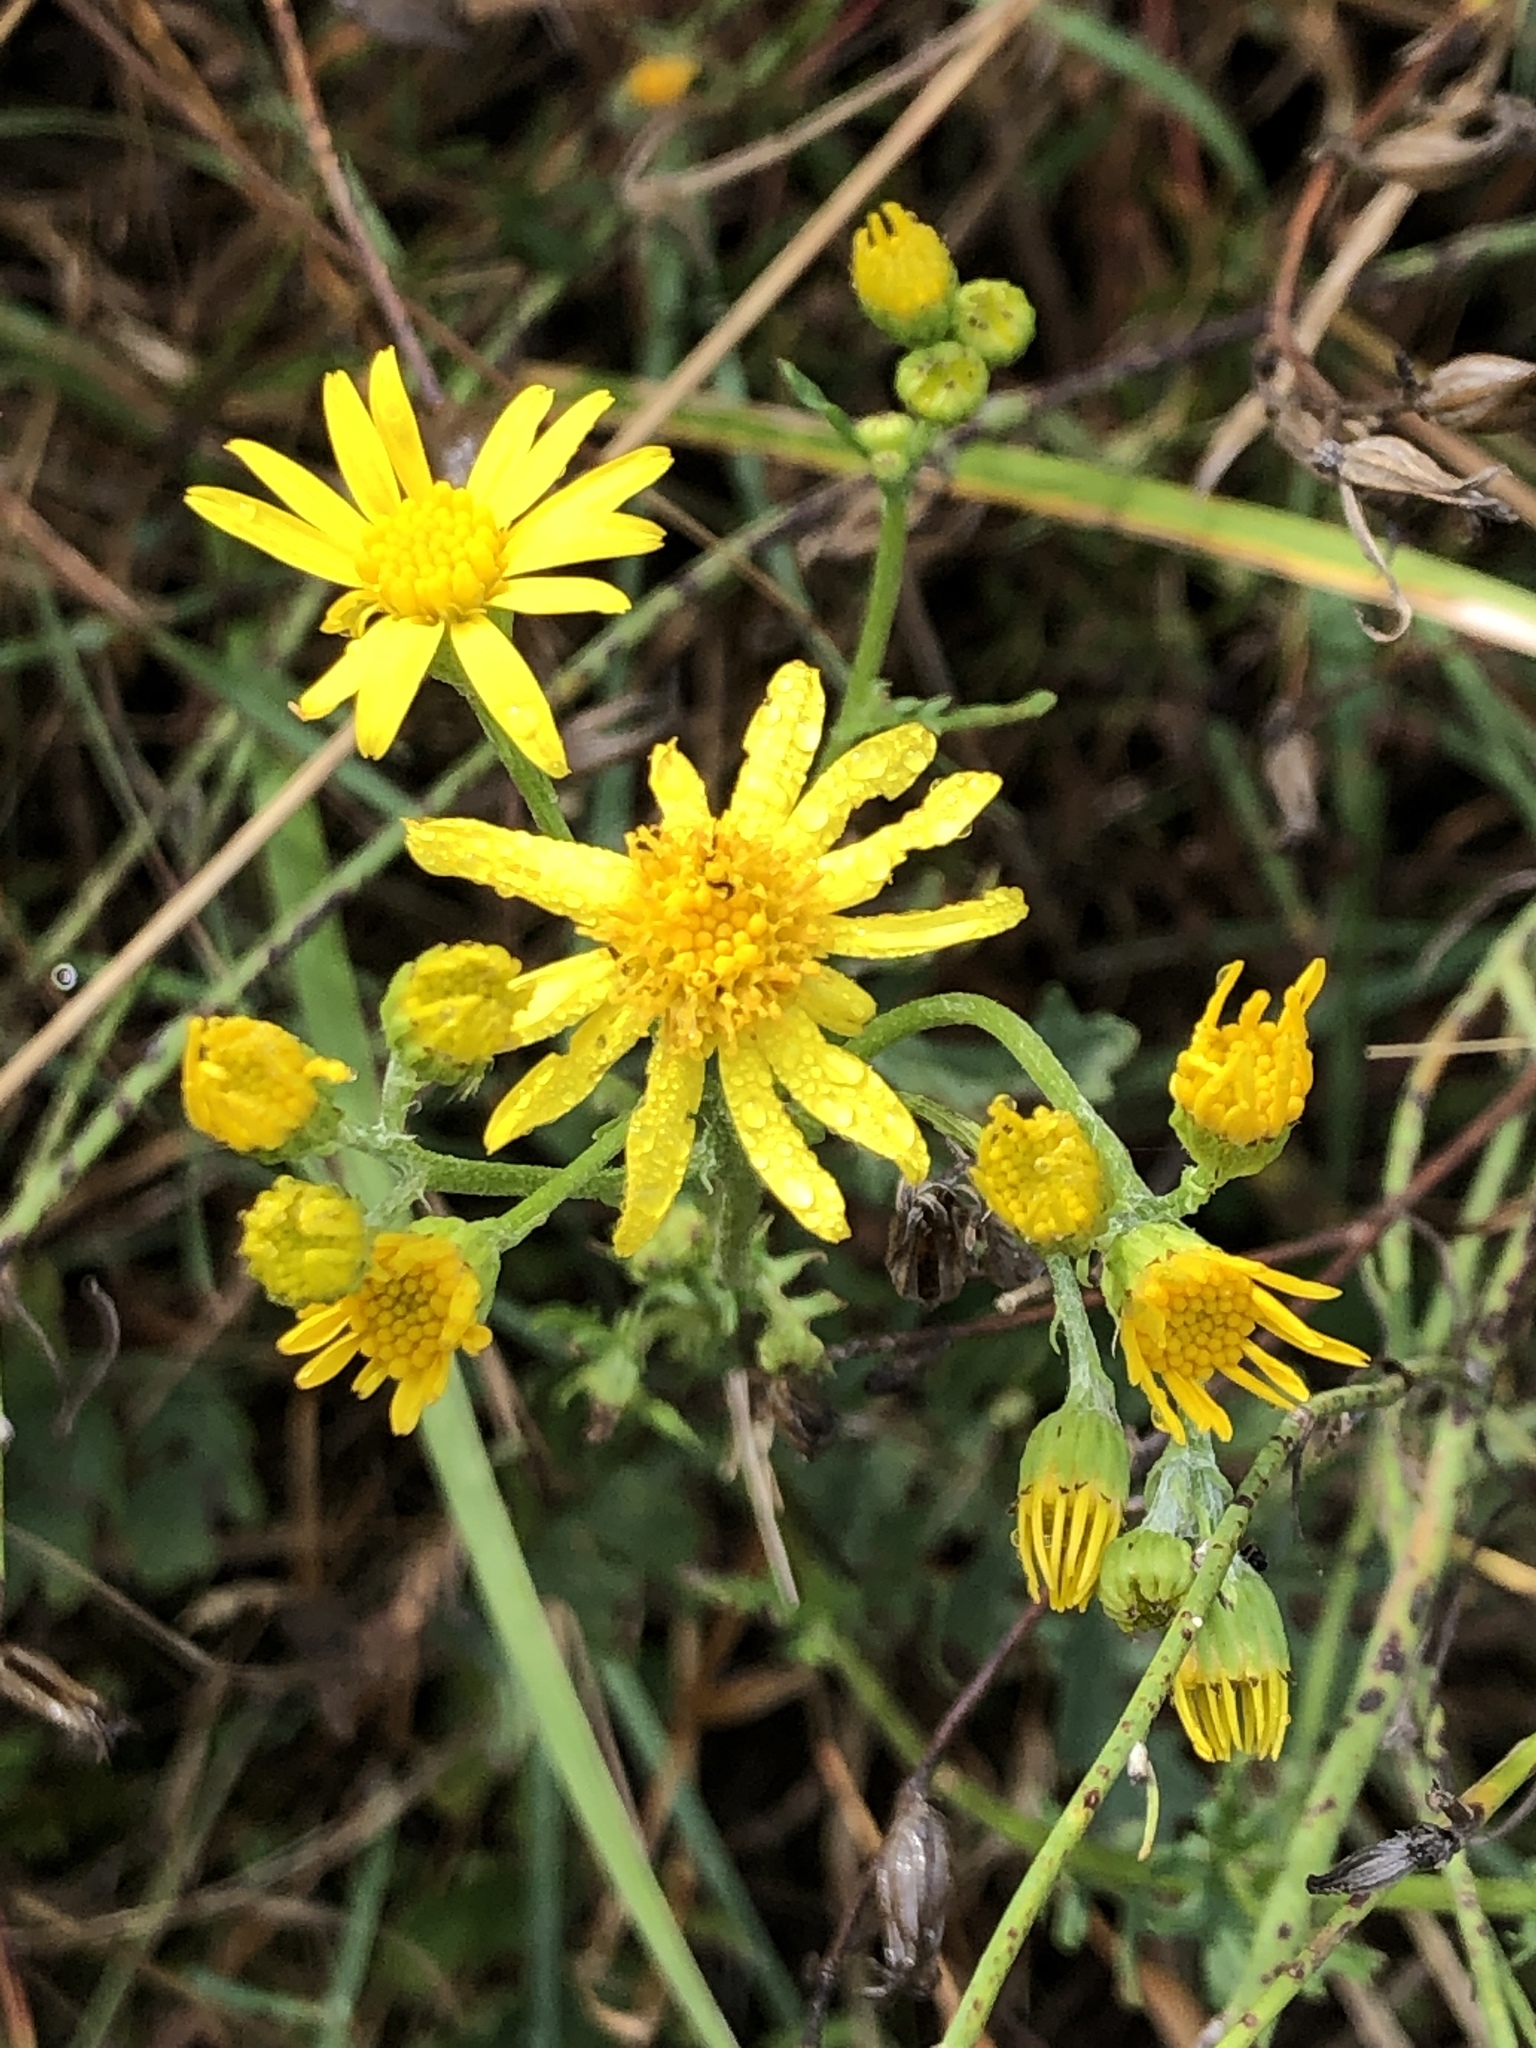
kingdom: Plantae
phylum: Tracheophyta
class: Magnoliopsida
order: Asterales
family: Asteraceae
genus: Jacobaea
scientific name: Jacobaea vulgaris
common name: Stinking willie
